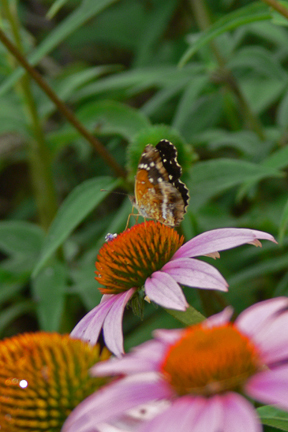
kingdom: Animalia
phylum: Arthropoda
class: Insecta
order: Lepidoptera
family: Nymphalidae
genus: Anthanassa
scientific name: Anthanassa texana
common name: Texan crescent
